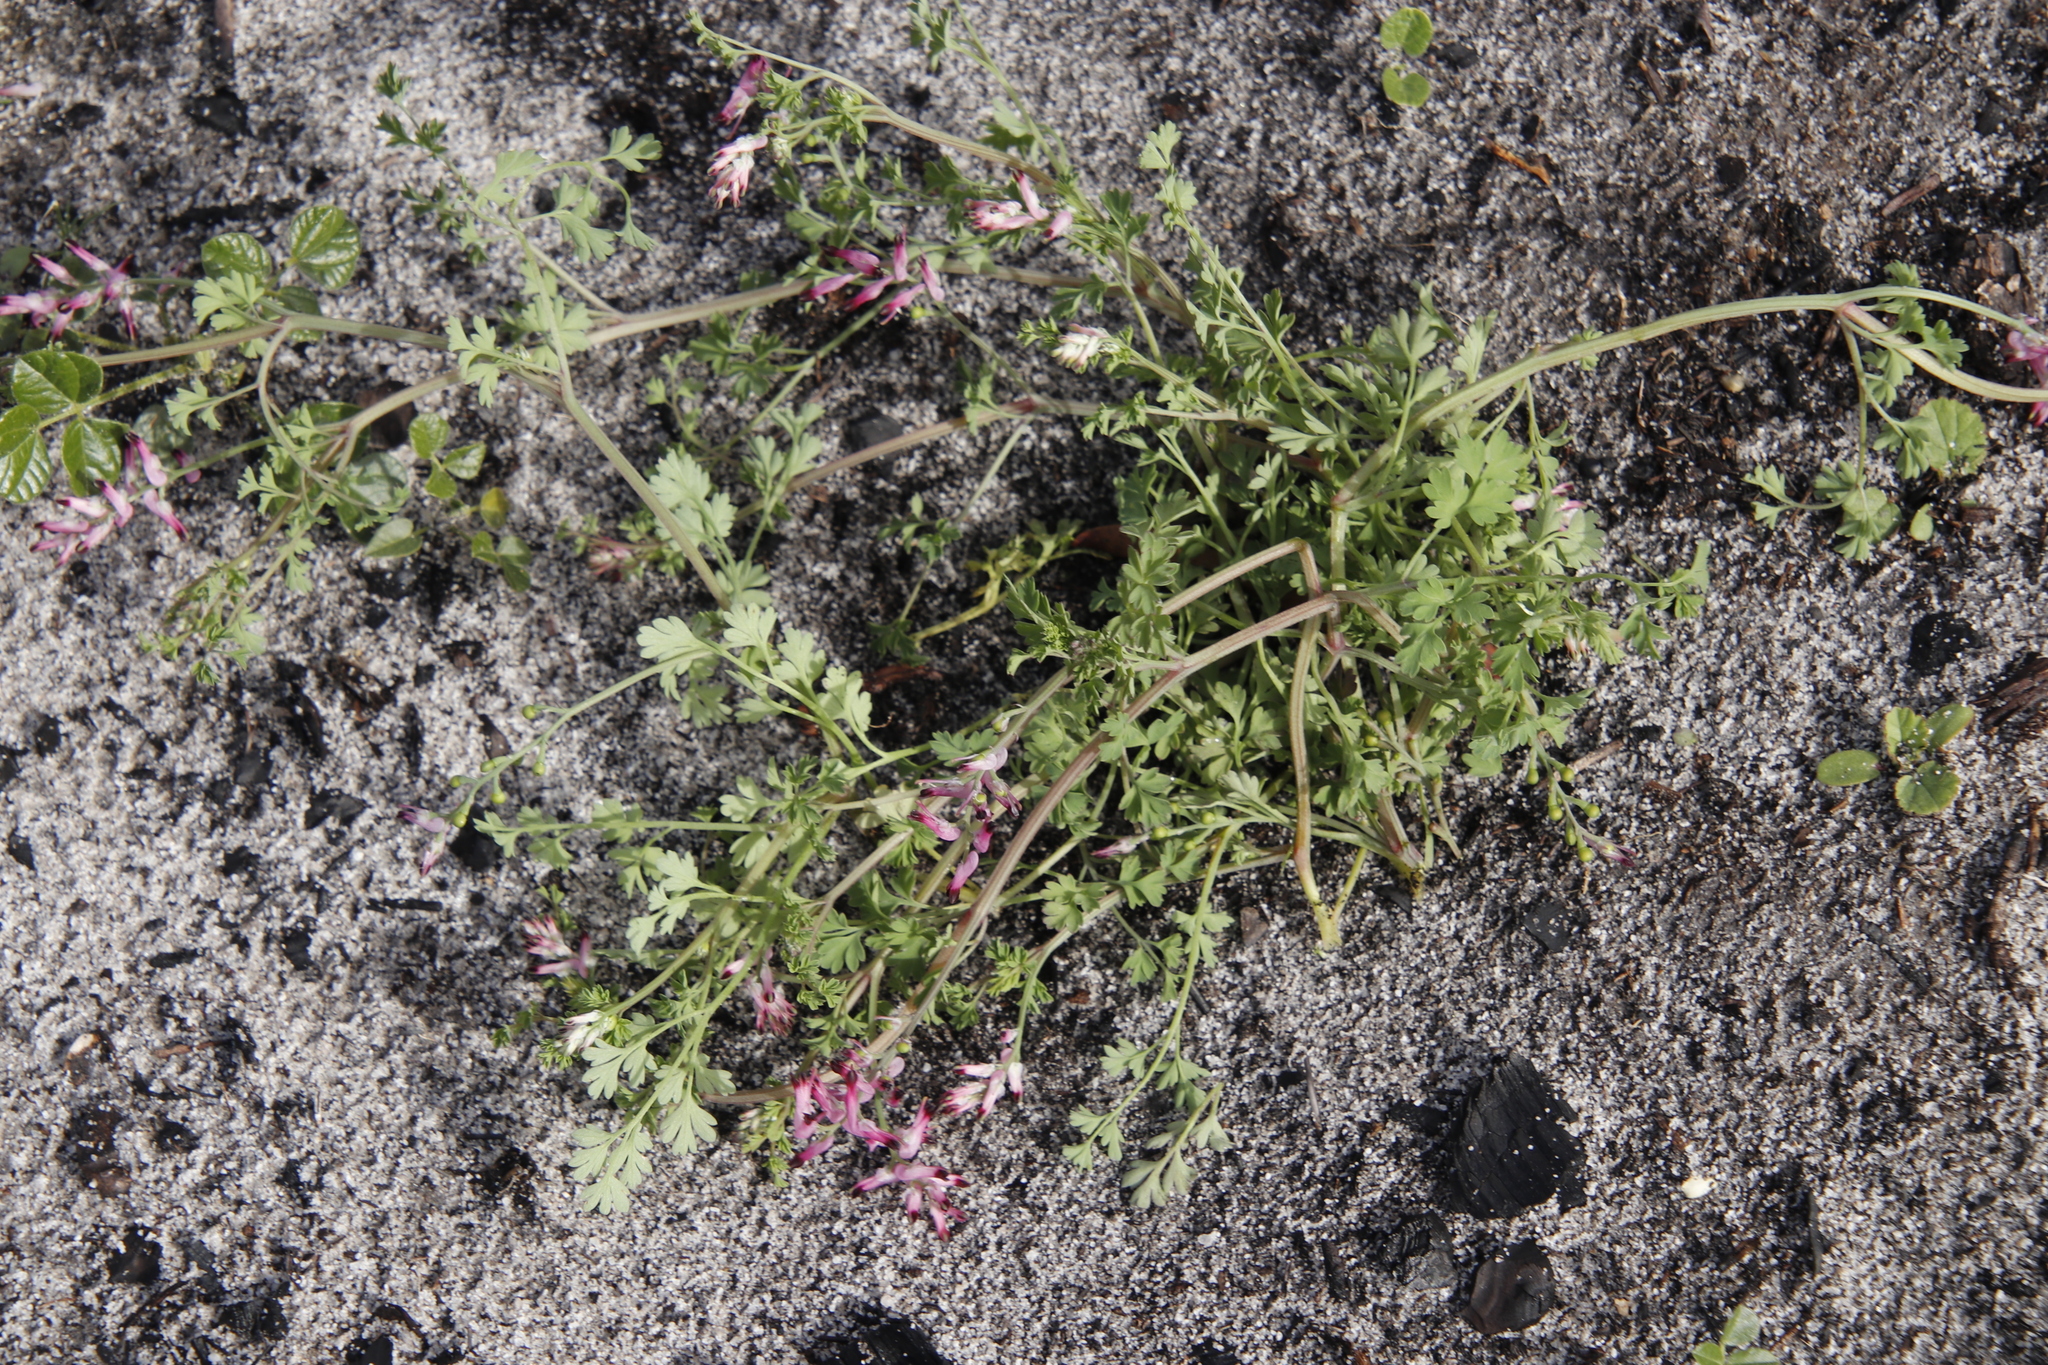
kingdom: Plantae
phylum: Tracheophyta
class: Magnoliopsida
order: Ranunculales
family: Papaveraceae
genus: Fumaria
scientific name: Fumaria muralis
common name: Common ramping-fumitory
